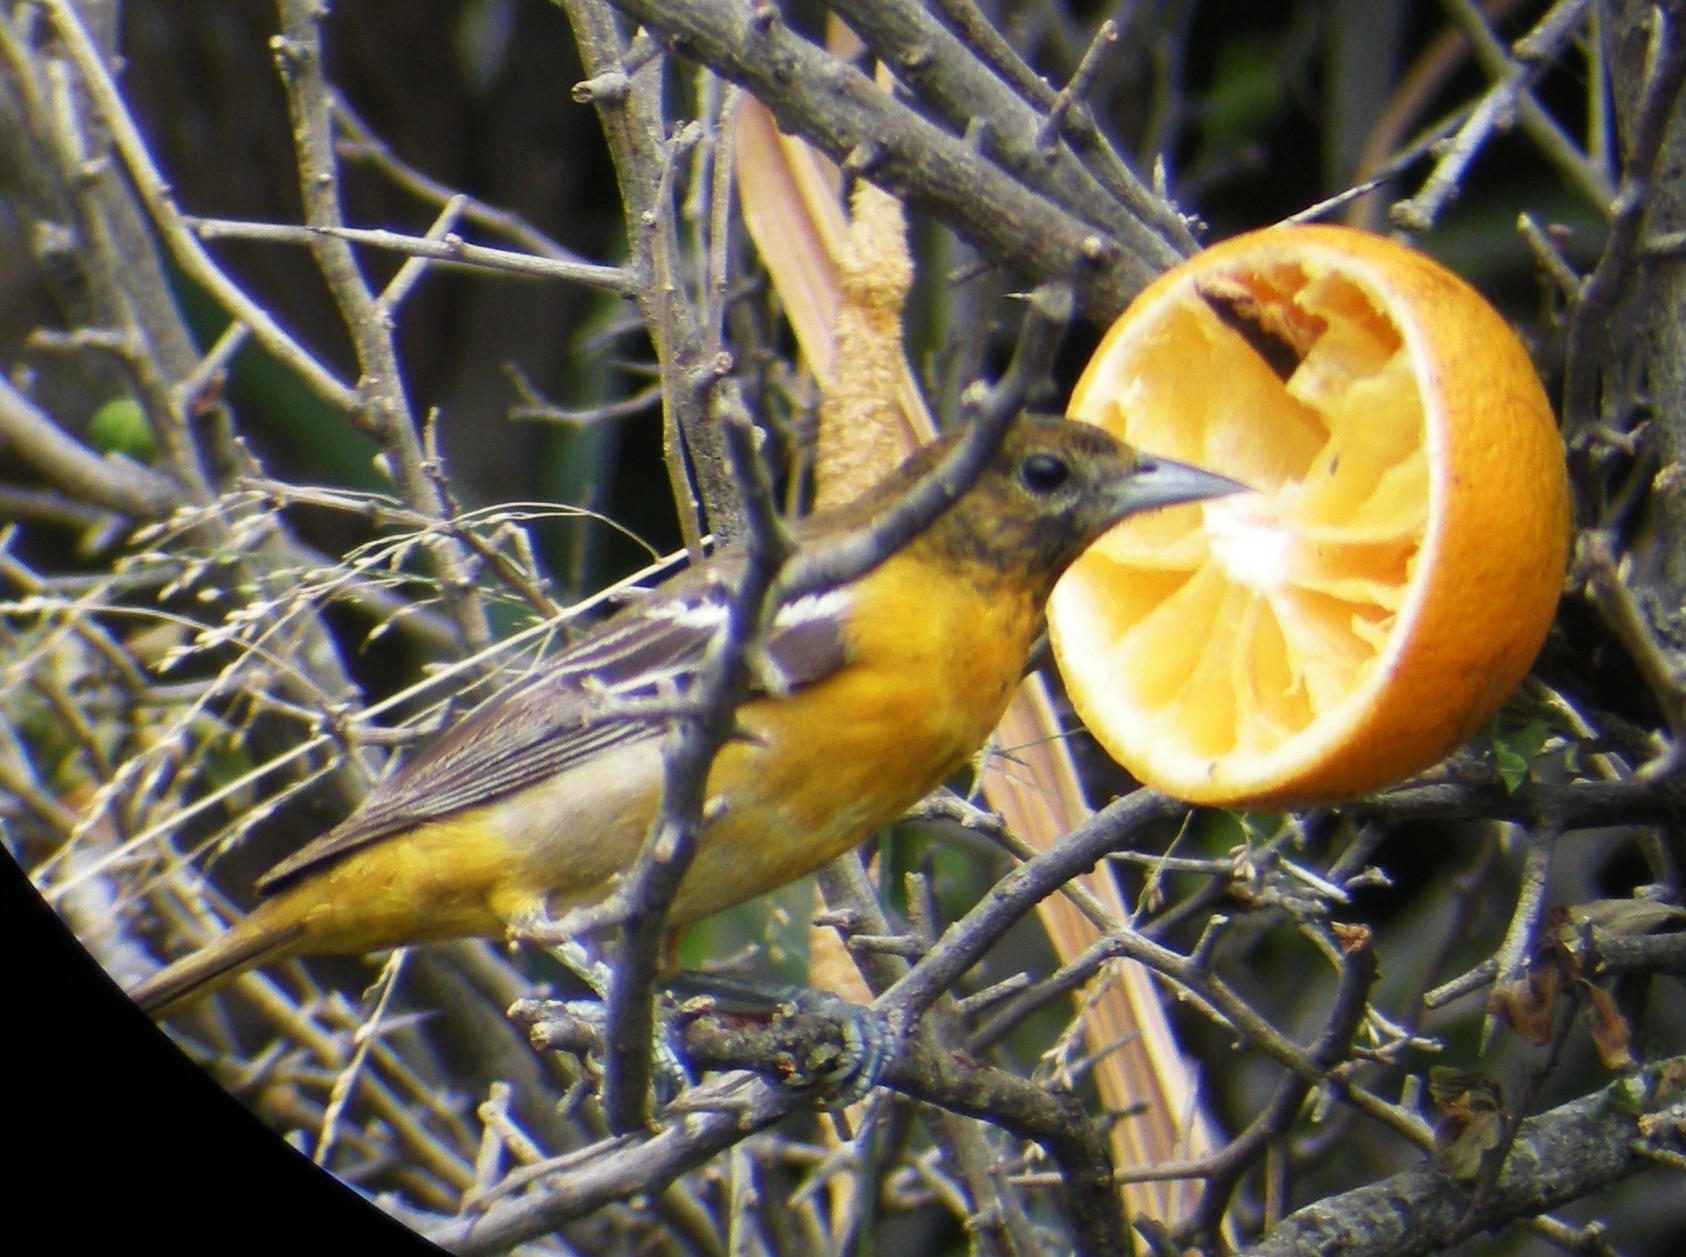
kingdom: Animalia
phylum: Chordata
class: Aves
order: Passeriformes
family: Icteridae
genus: Icterus
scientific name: Icterus galbula
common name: Baltimore oriole
